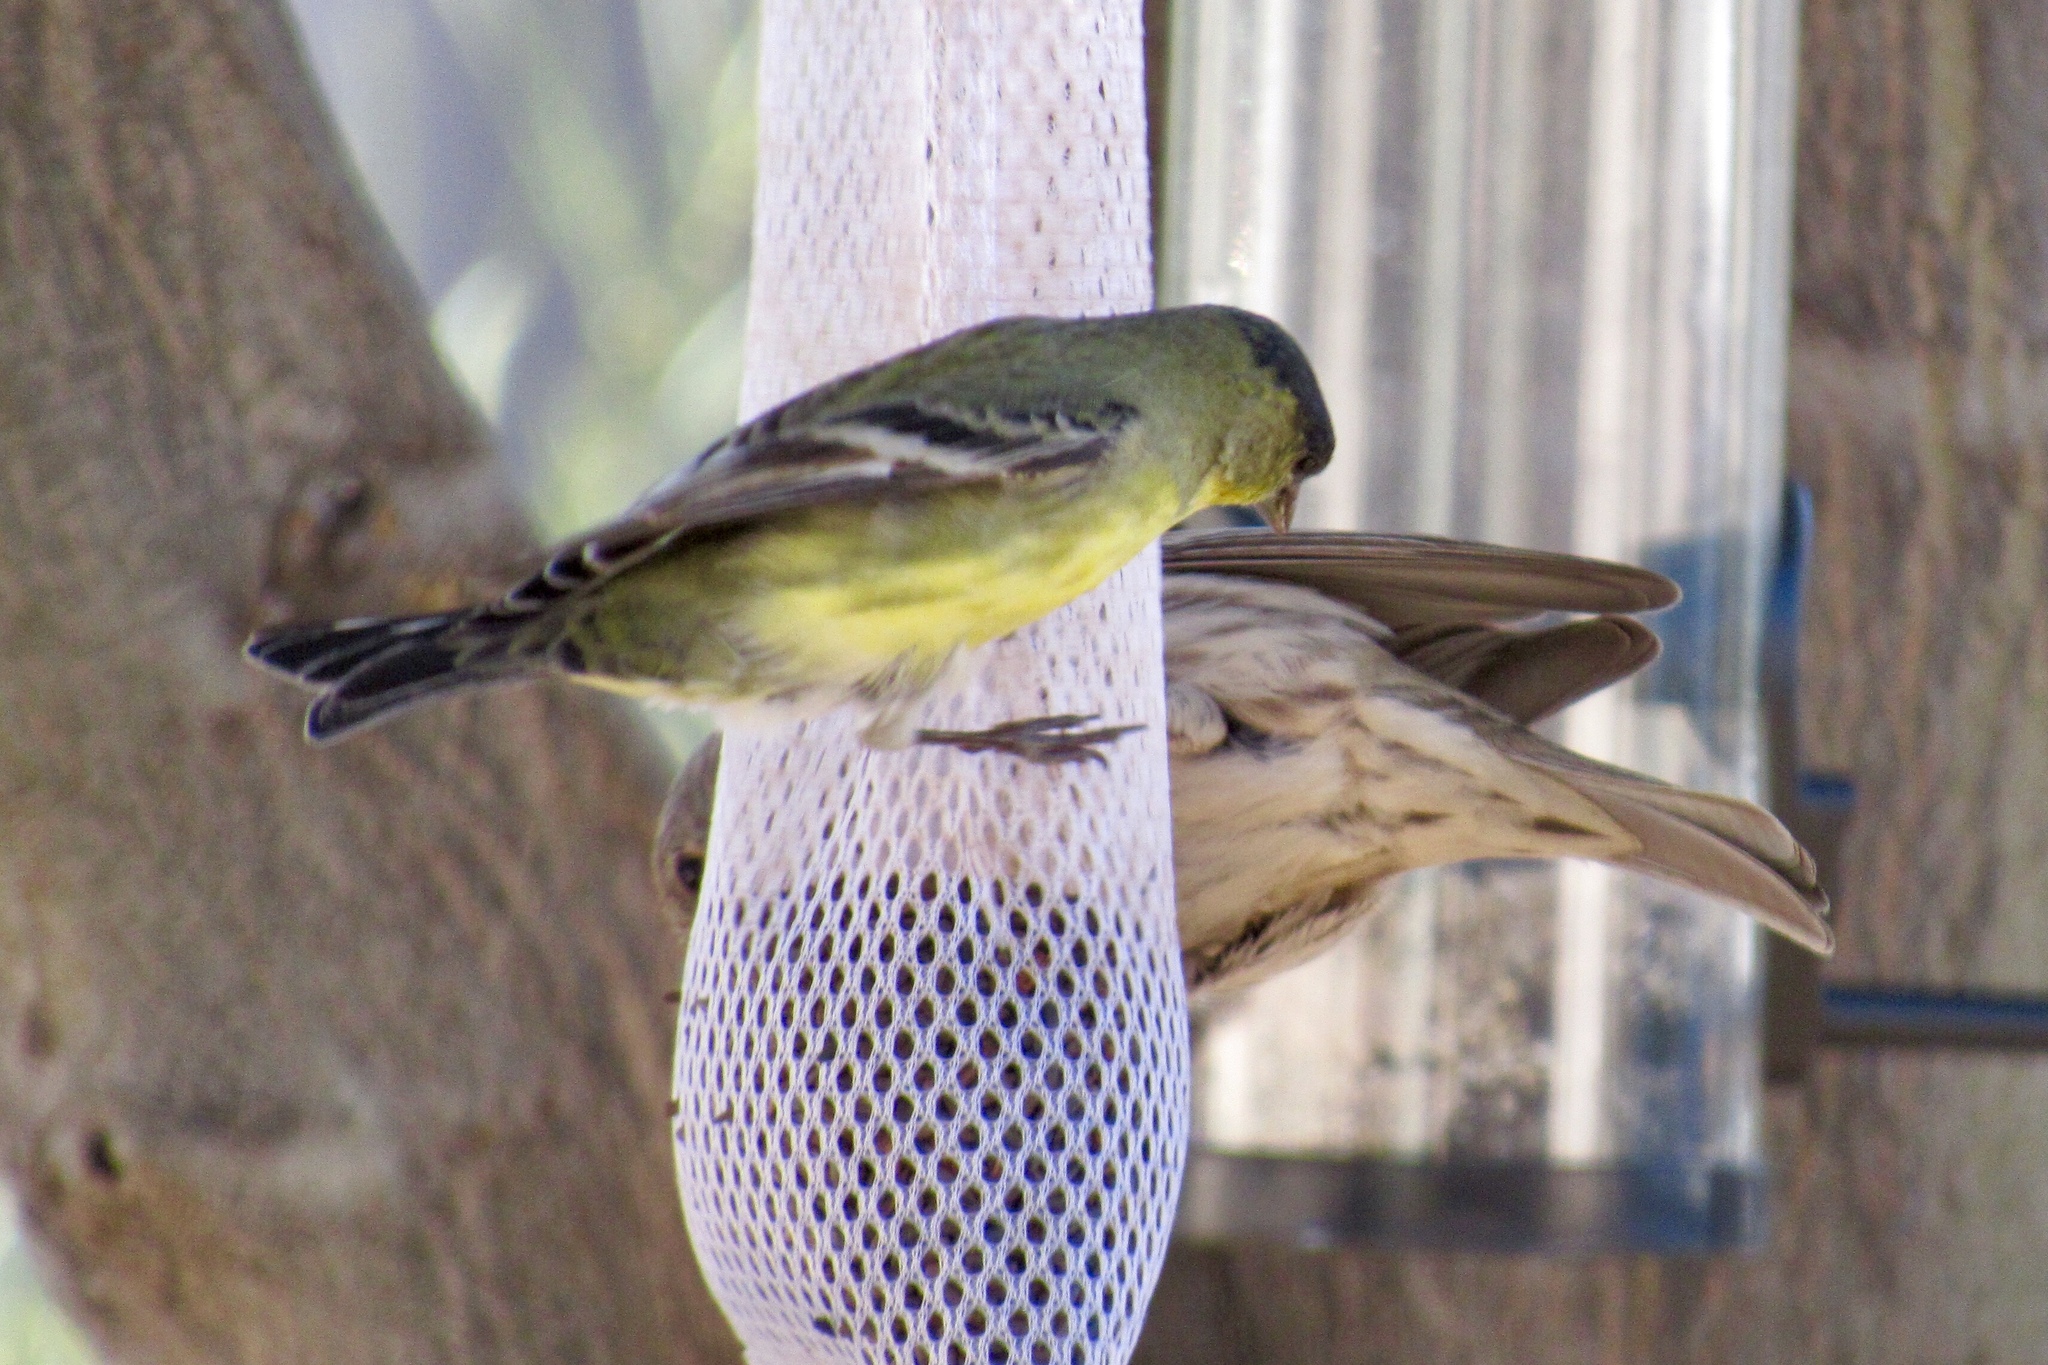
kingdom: Animalia
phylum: Chordata
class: Aves
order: Passeriformes
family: Fringillidae
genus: Spinus
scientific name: Spinus psaltria
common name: Lesser goldfinch
